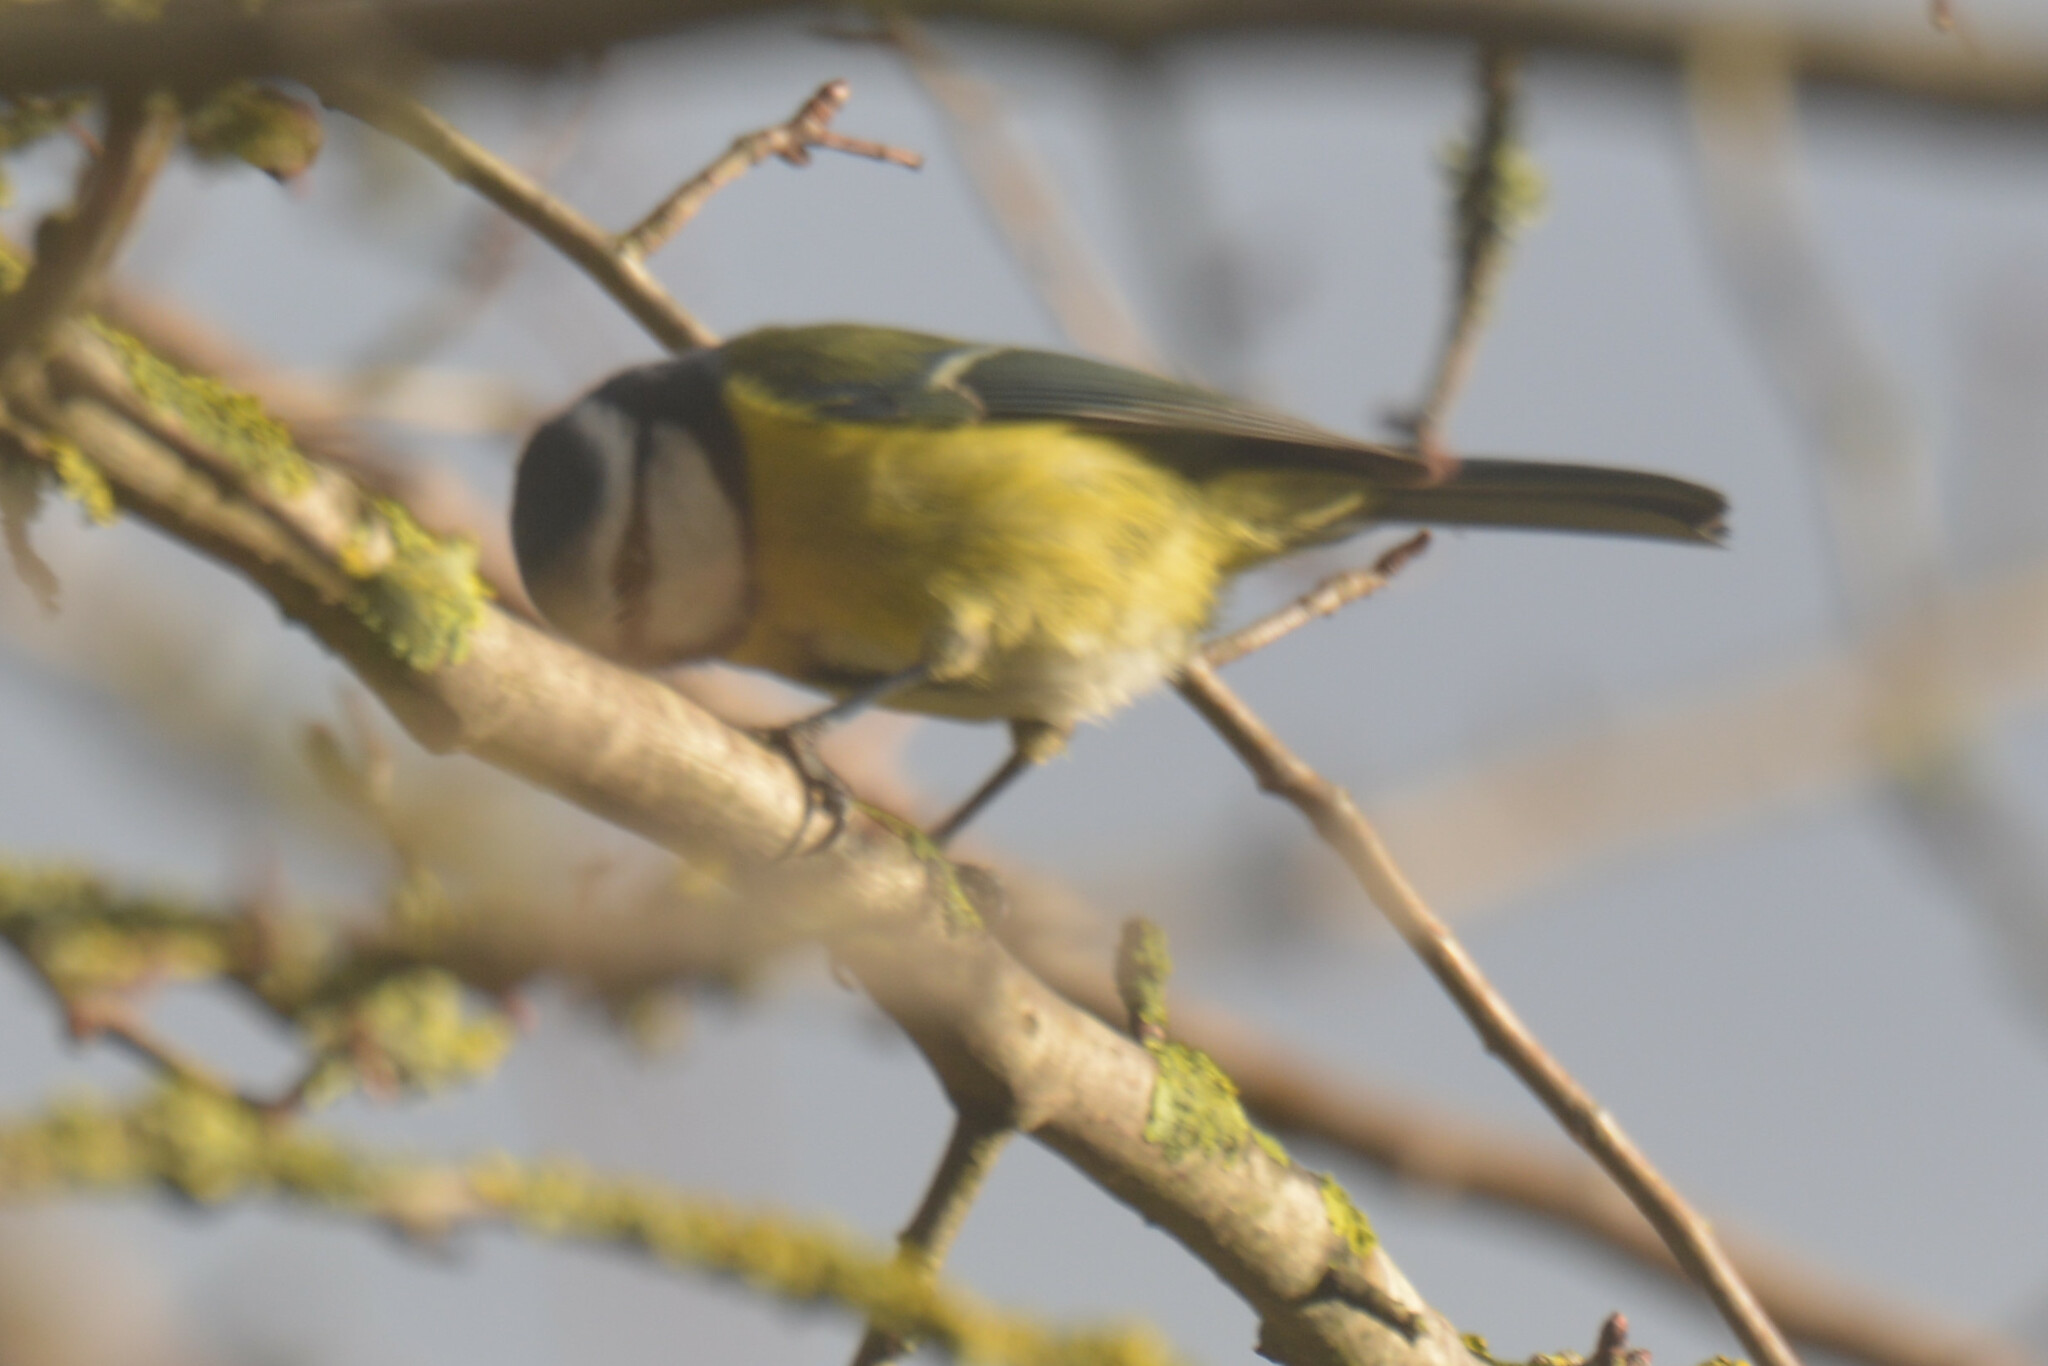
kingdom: Animalia
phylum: Chordata
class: Aves
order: Passeriformes
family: Paridae
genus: Cyanistes
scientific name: Cyanistes caeruleus
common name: Eurasian blue tit
